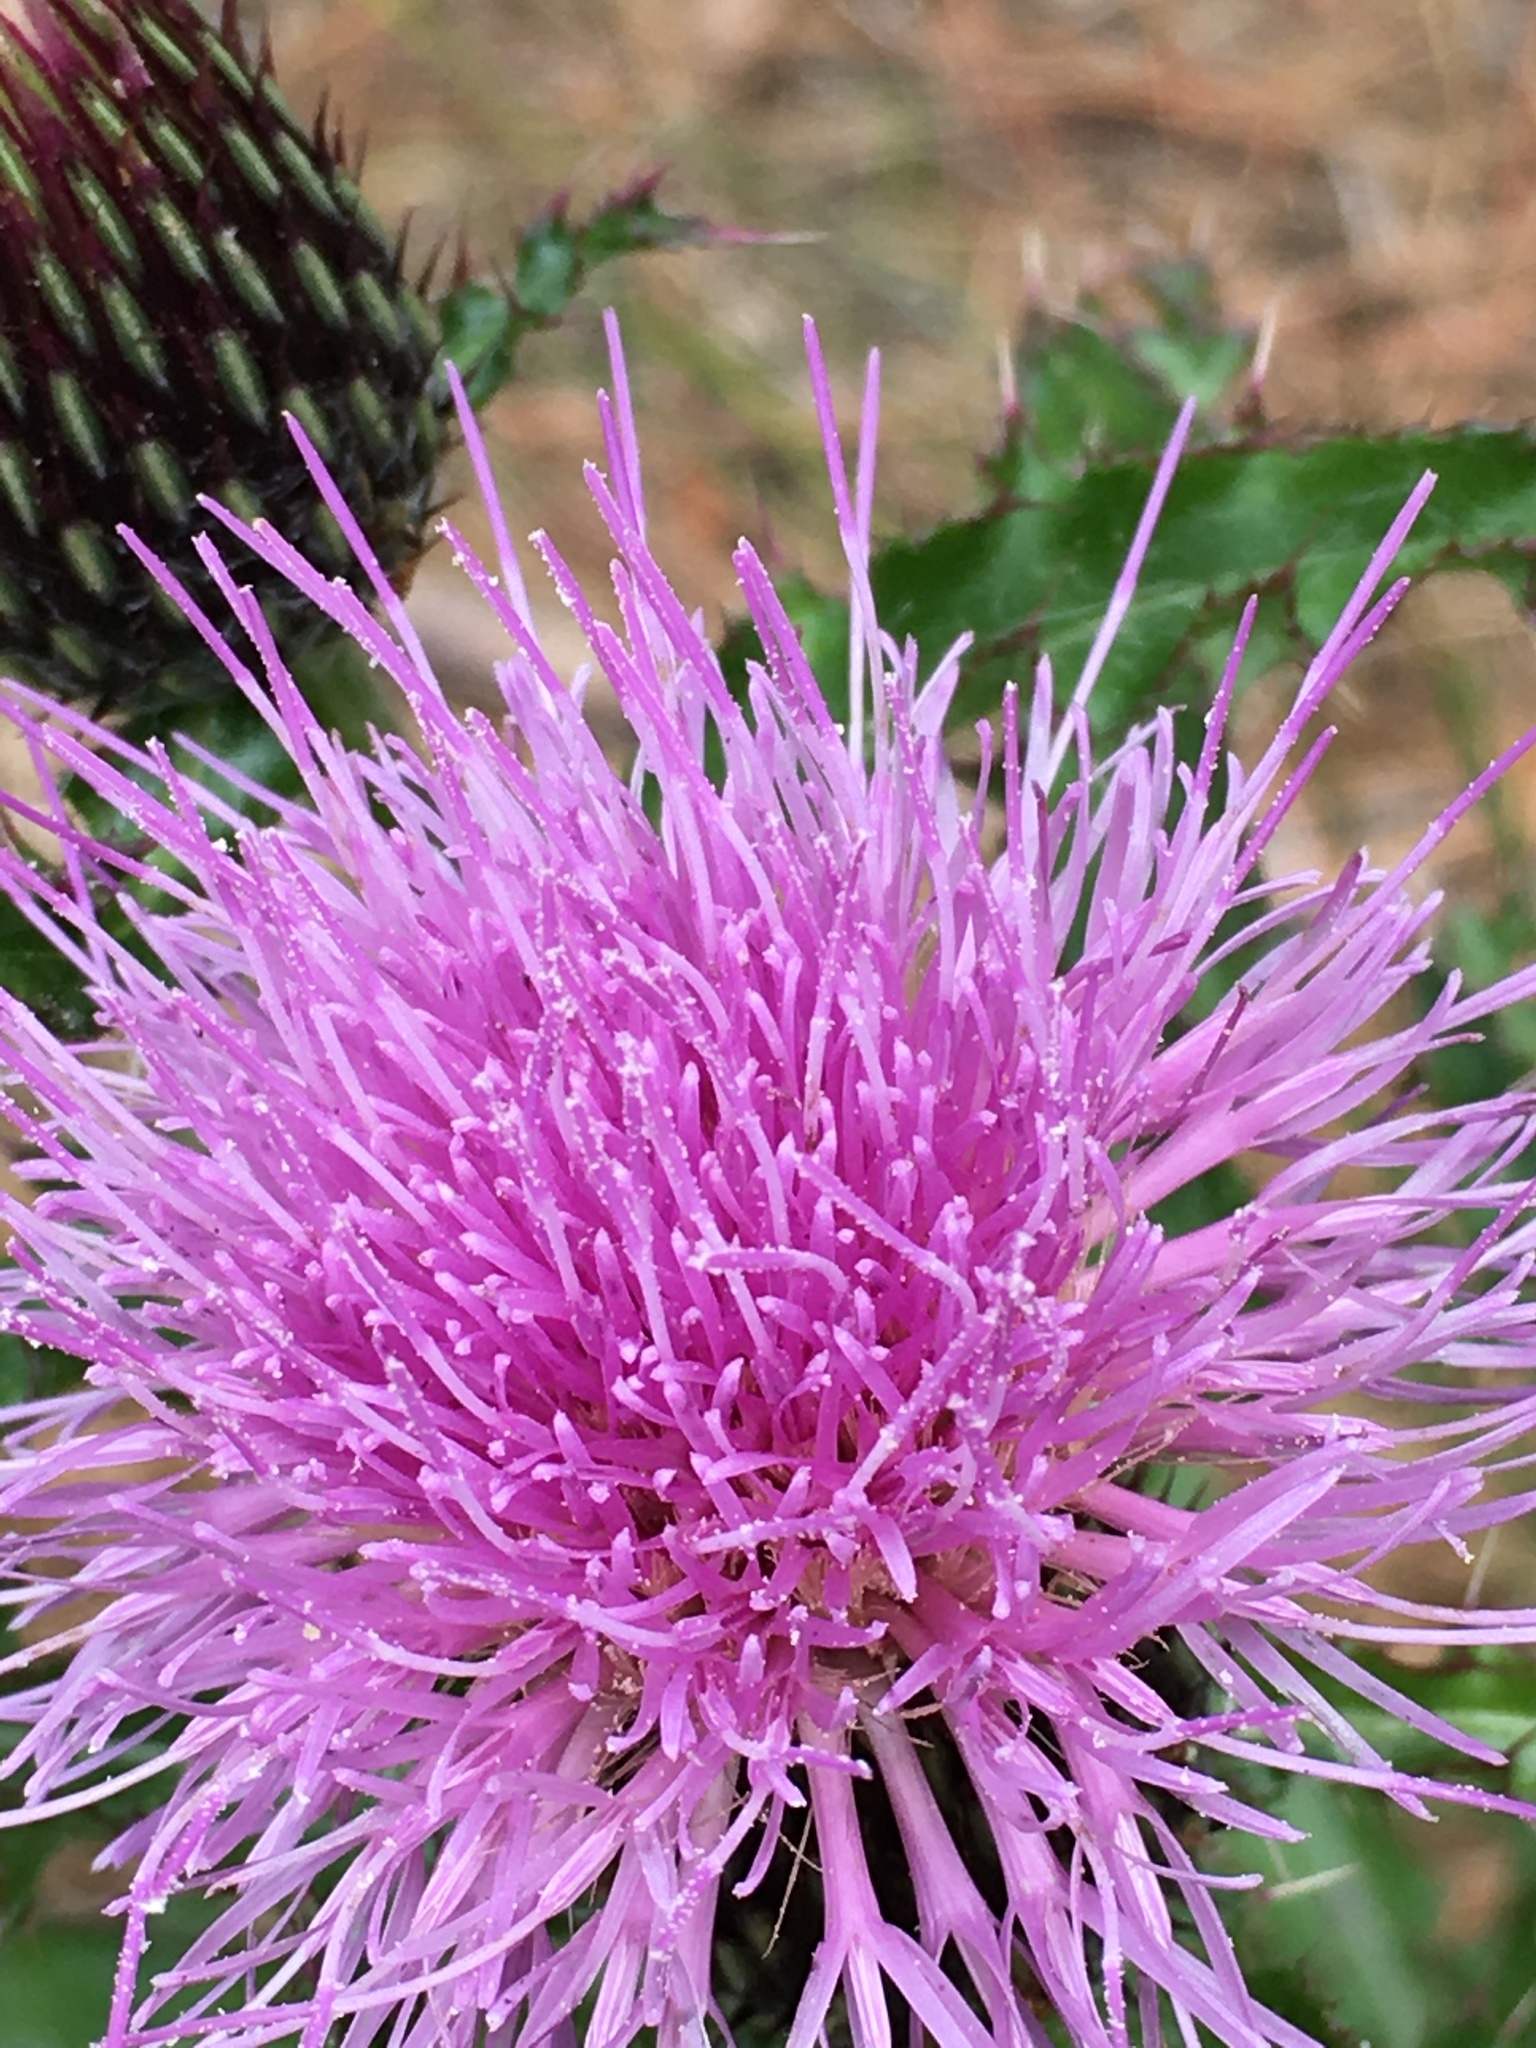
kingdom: Plantae
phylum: Tracheophyta
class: Magnoliopsida
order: Asterales
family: Asteraceae
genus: Cirsium
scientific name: Cirsium repandum
